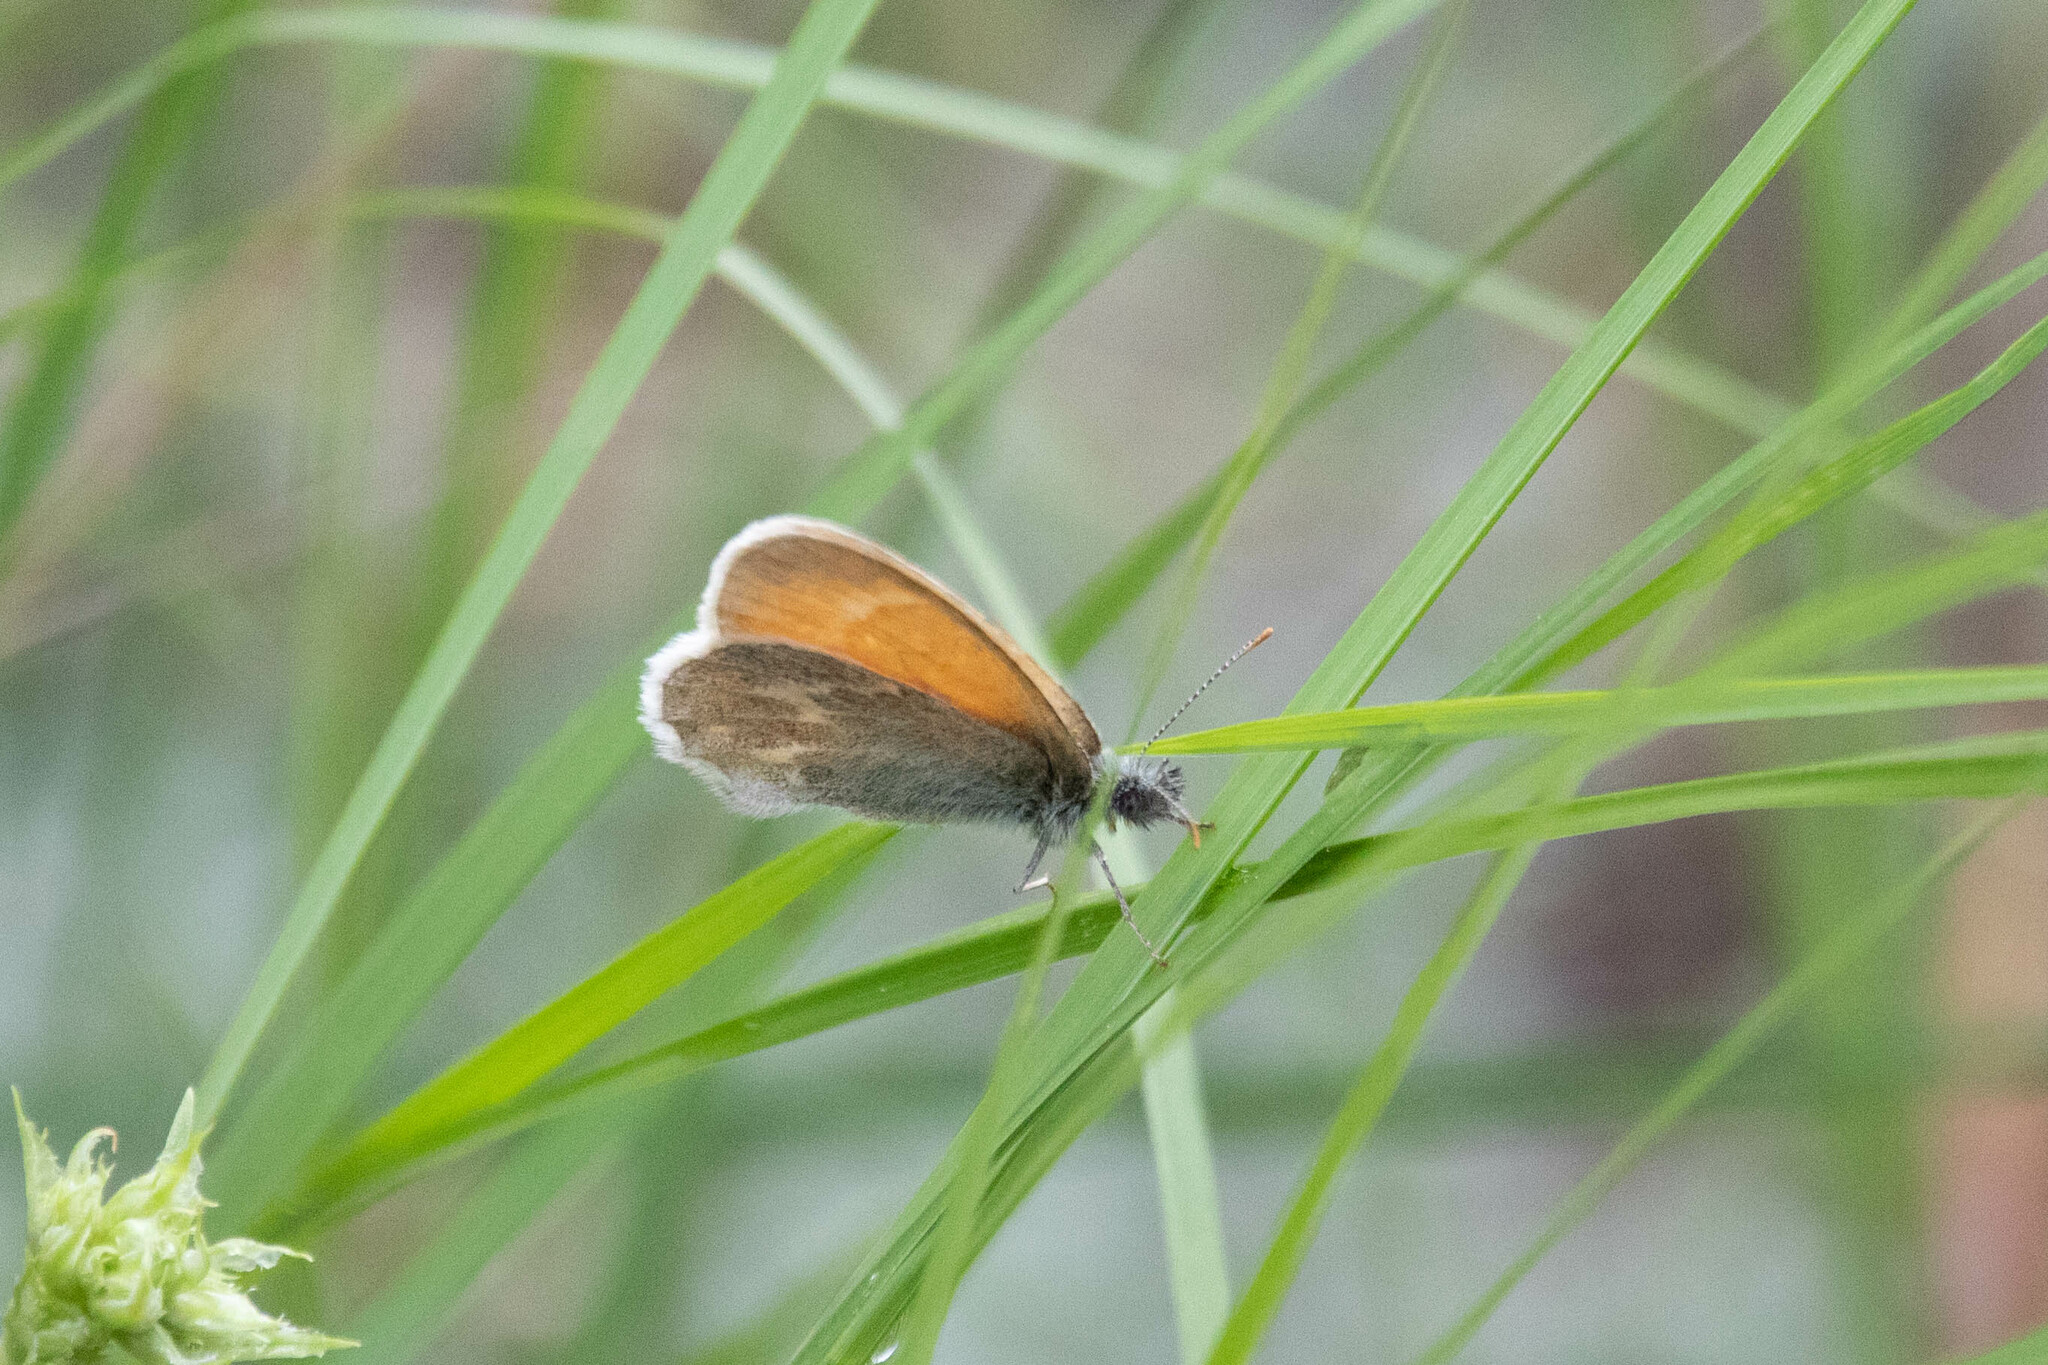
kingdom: Animalia
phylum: Arthropoda
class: Insecta
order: Lepidoptera
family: Nymphalidae
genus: Coenonympha
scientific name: Coenonympha california
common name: Common ringlet
